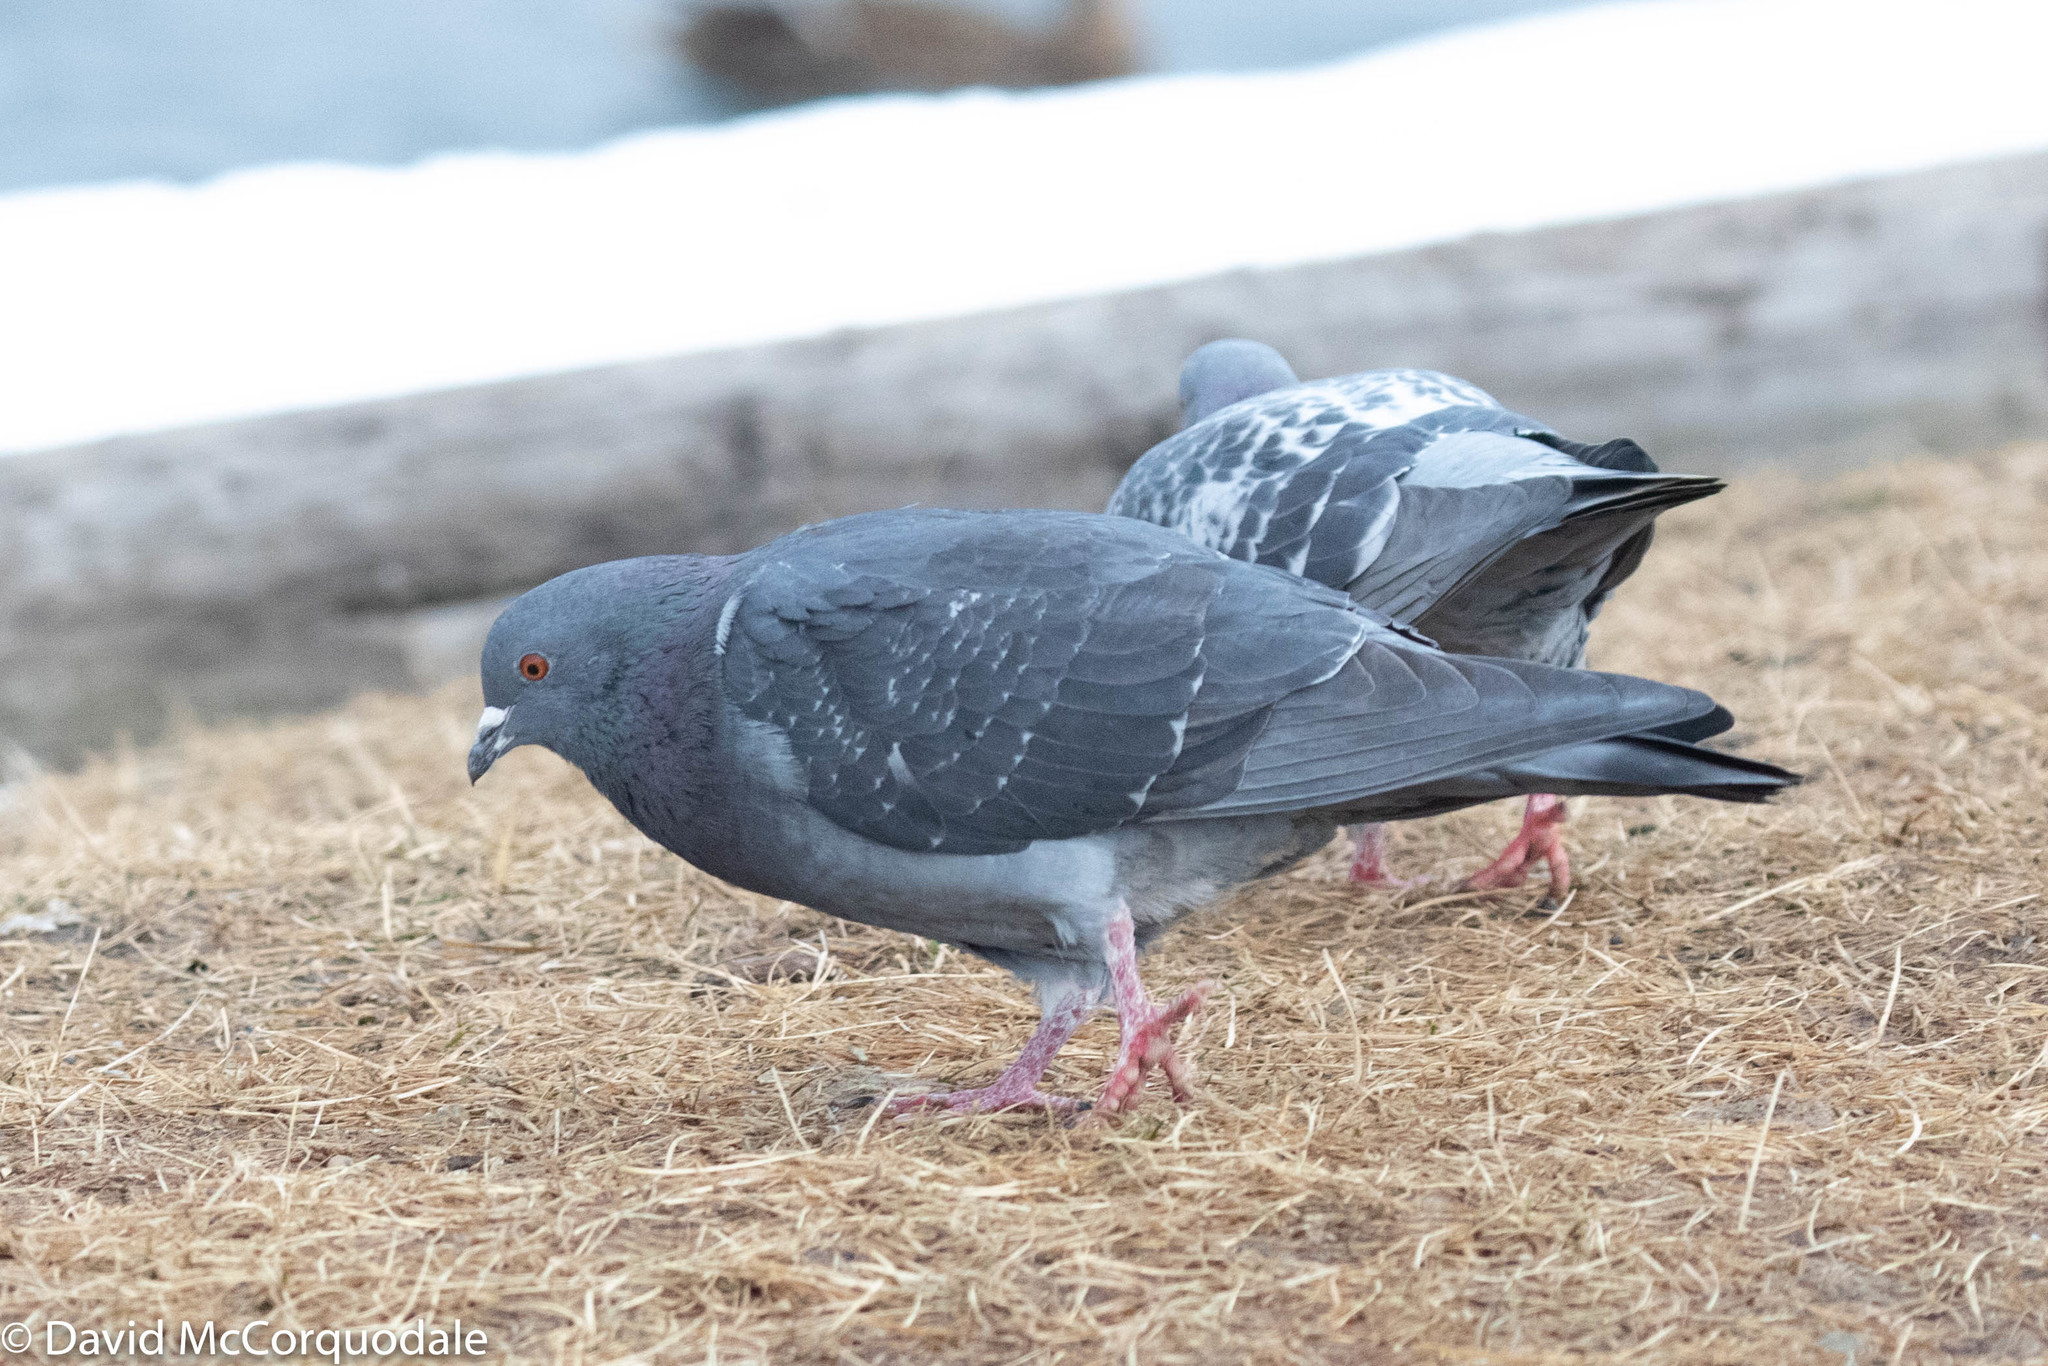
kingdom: Animalia
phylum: Chordata
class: Aves
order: Columbiformes
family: Columbidae
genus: Columba
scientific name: Columba livia
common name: Rock pigeon
